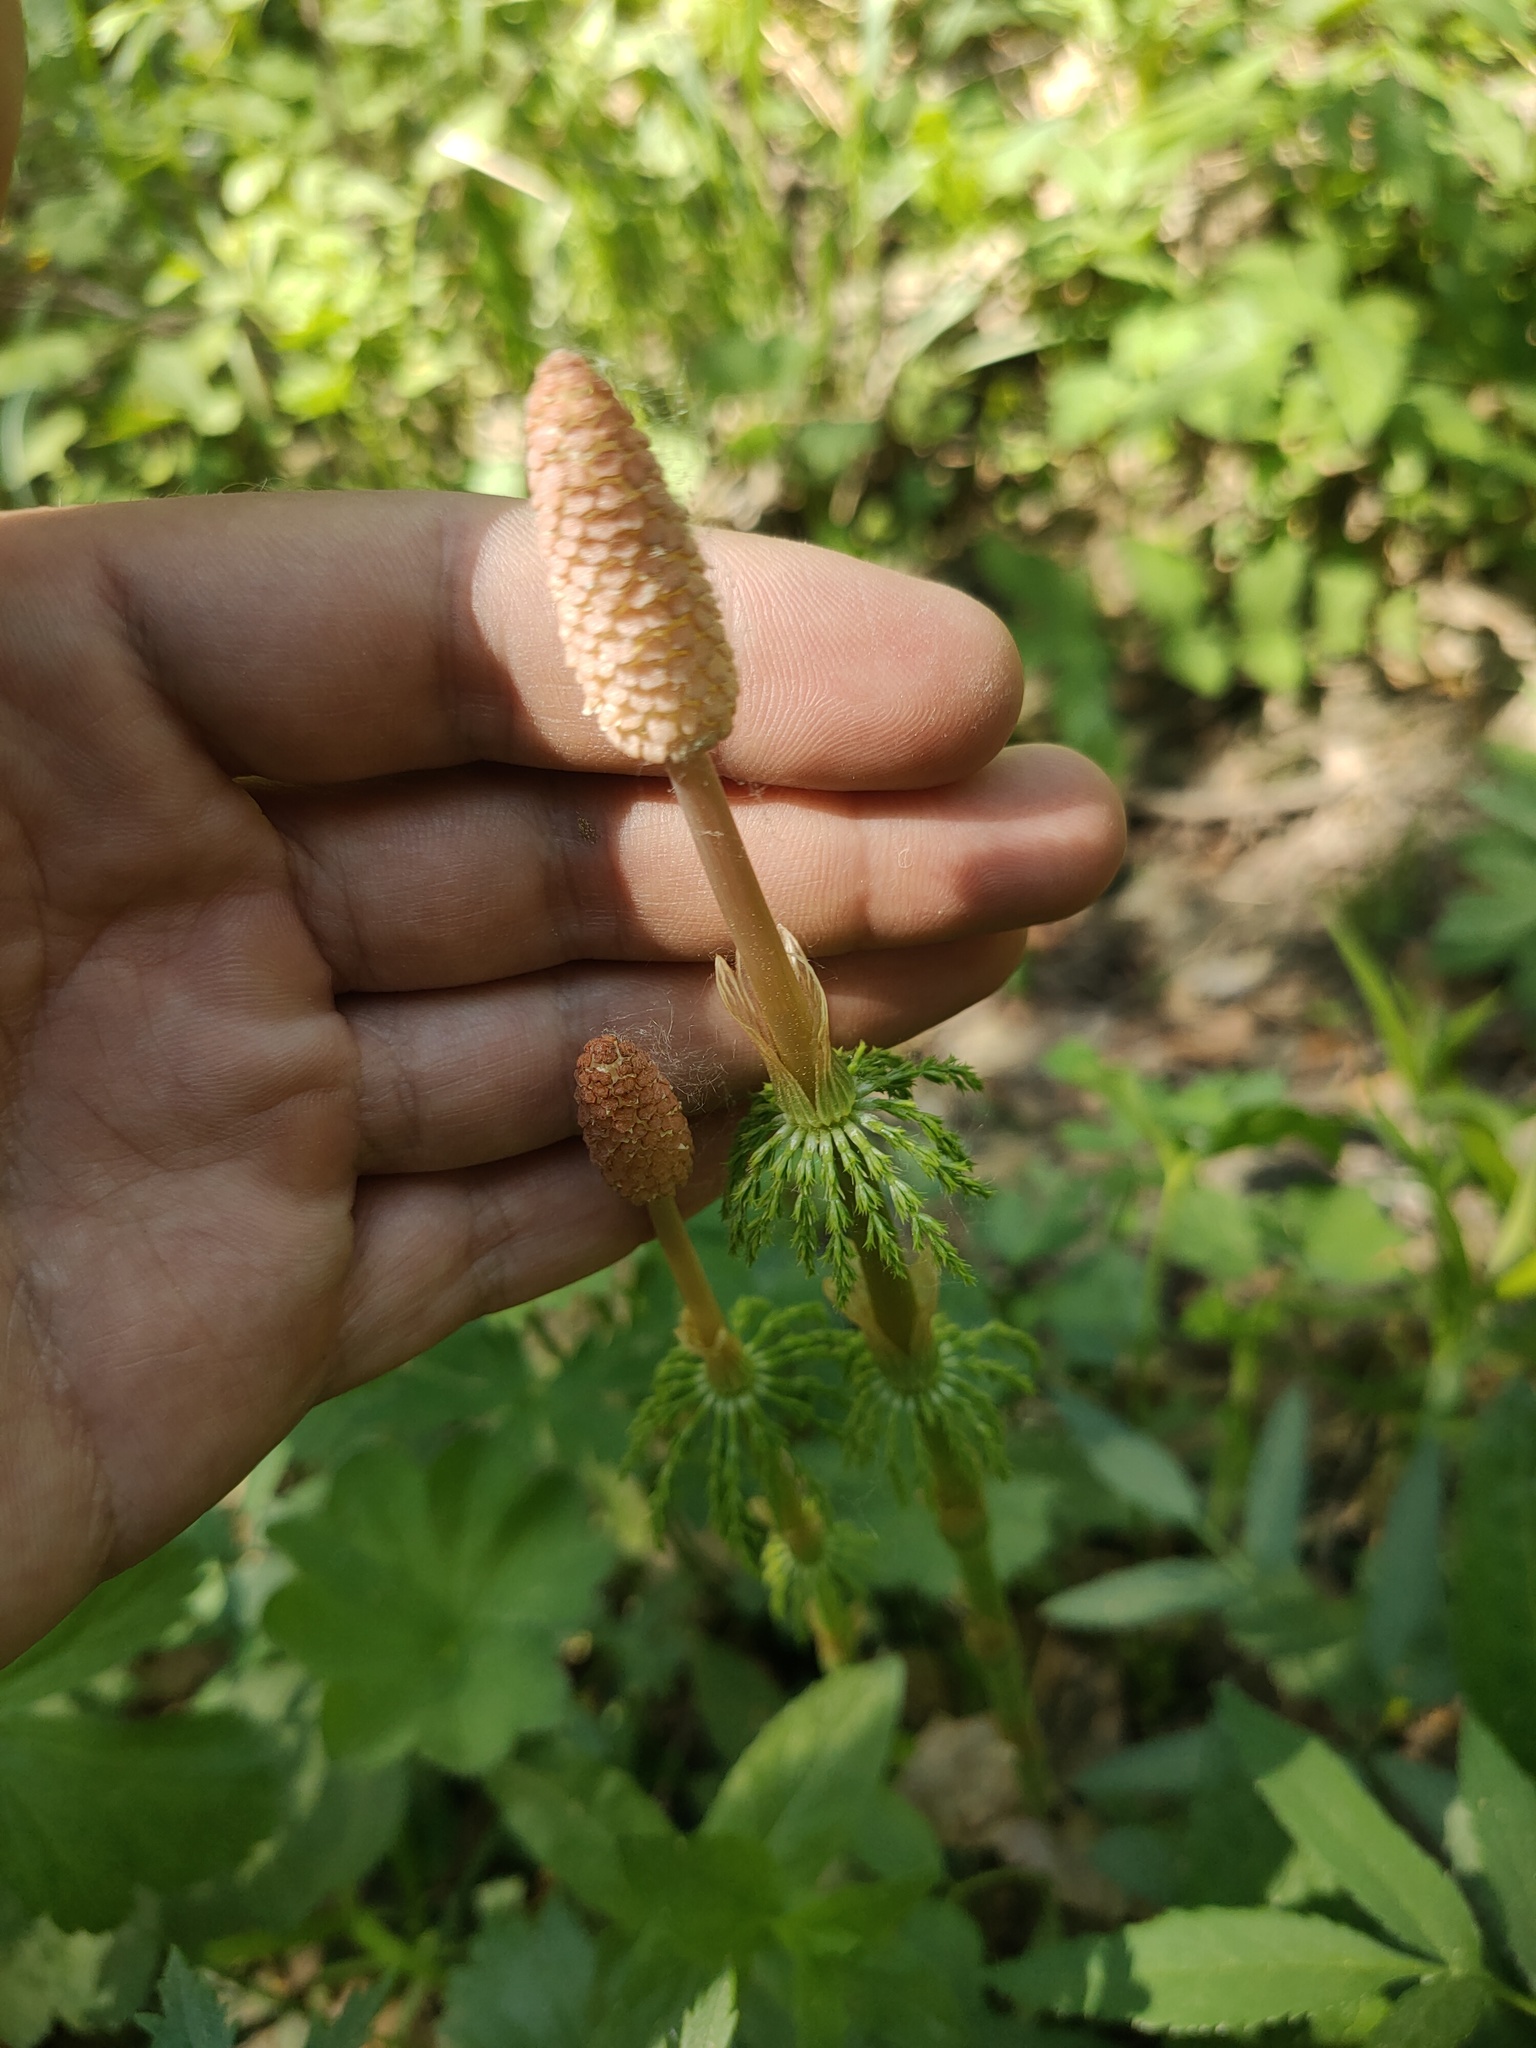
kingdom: Plantae
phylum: Tracheophyta
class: Polypodiopsida
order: Equisetales
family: Equisetaceae
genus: Equisetum
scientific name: Equisetum sylvaticum
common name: Wood horsetail
